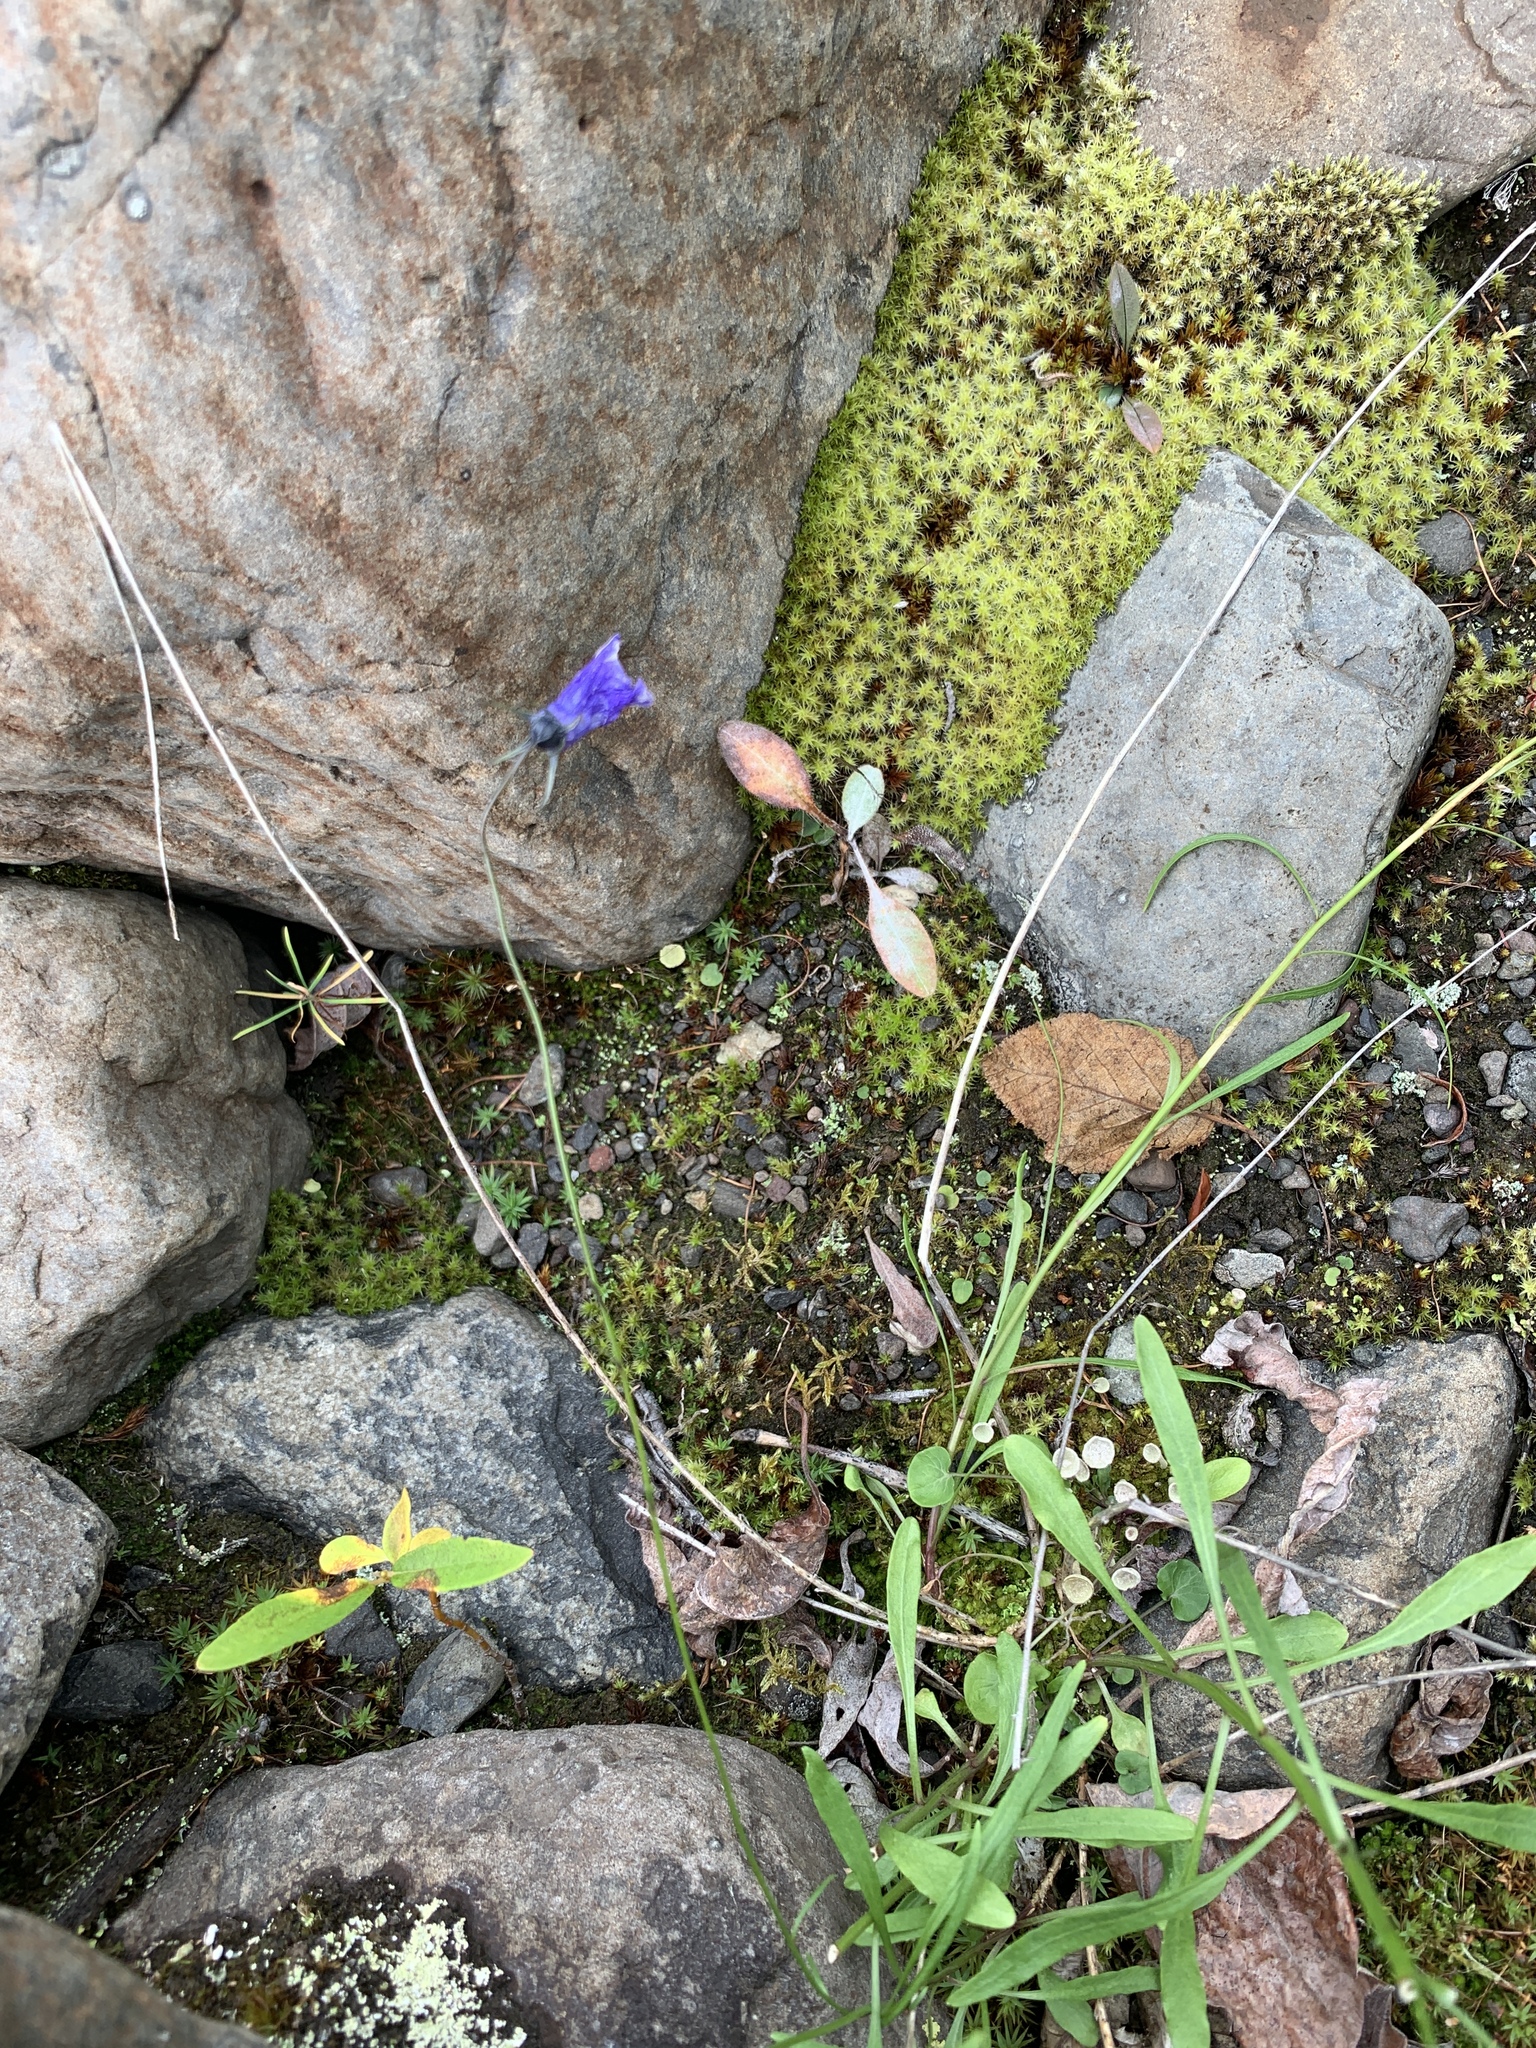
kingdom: Plantae
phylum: Tracheophyta
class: Magnoliopsida
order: Asterales
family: Campanulaceae
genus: Campanula
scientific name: Campanula rotundifolia
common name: Harebell
